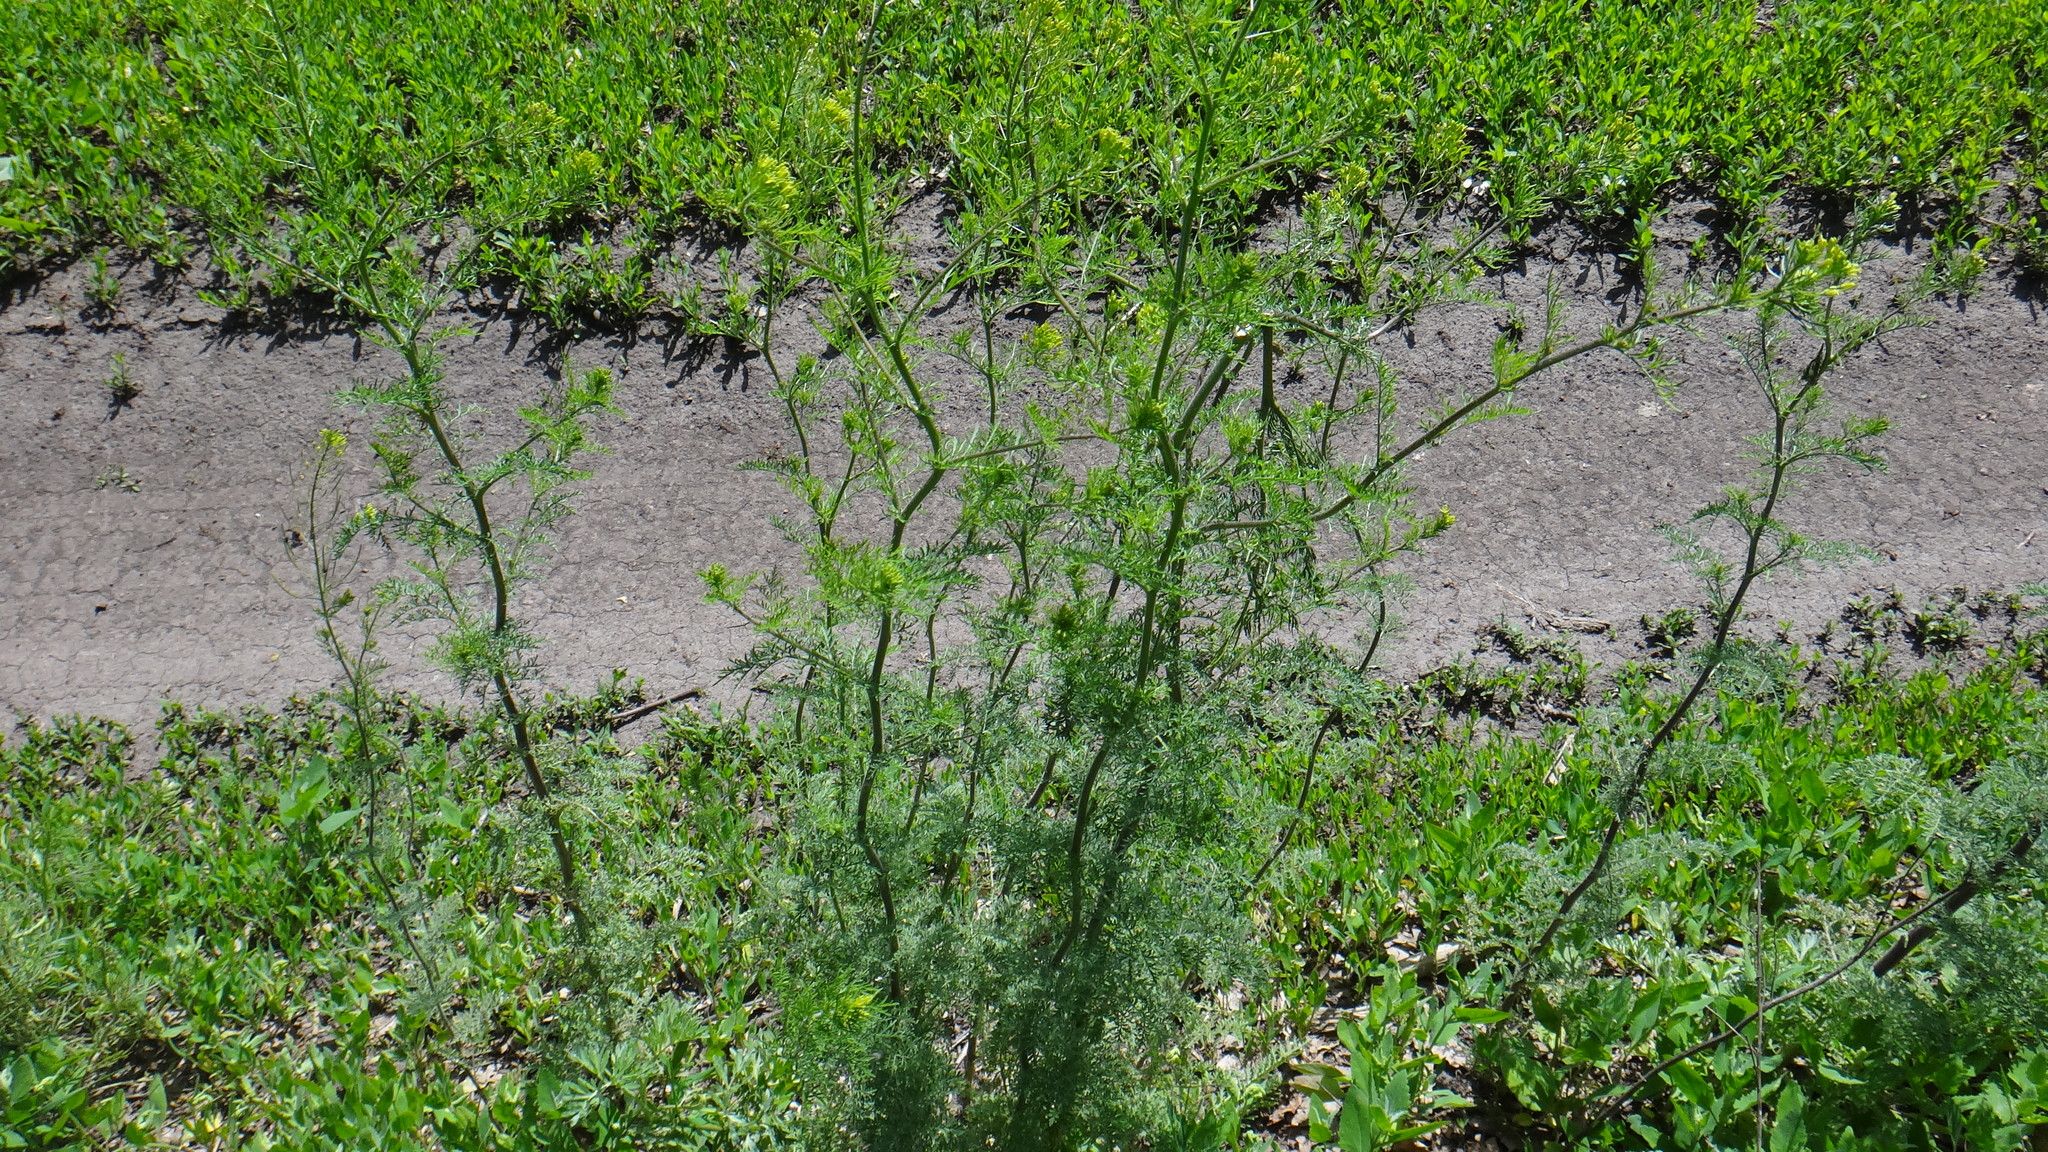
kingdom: Plantae
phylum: Tracheophyta
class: Magnoliopsida
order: Brassicales
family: Brassicaceae
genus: Descurainia
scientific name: Descurainia sophia
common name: Flixweed
